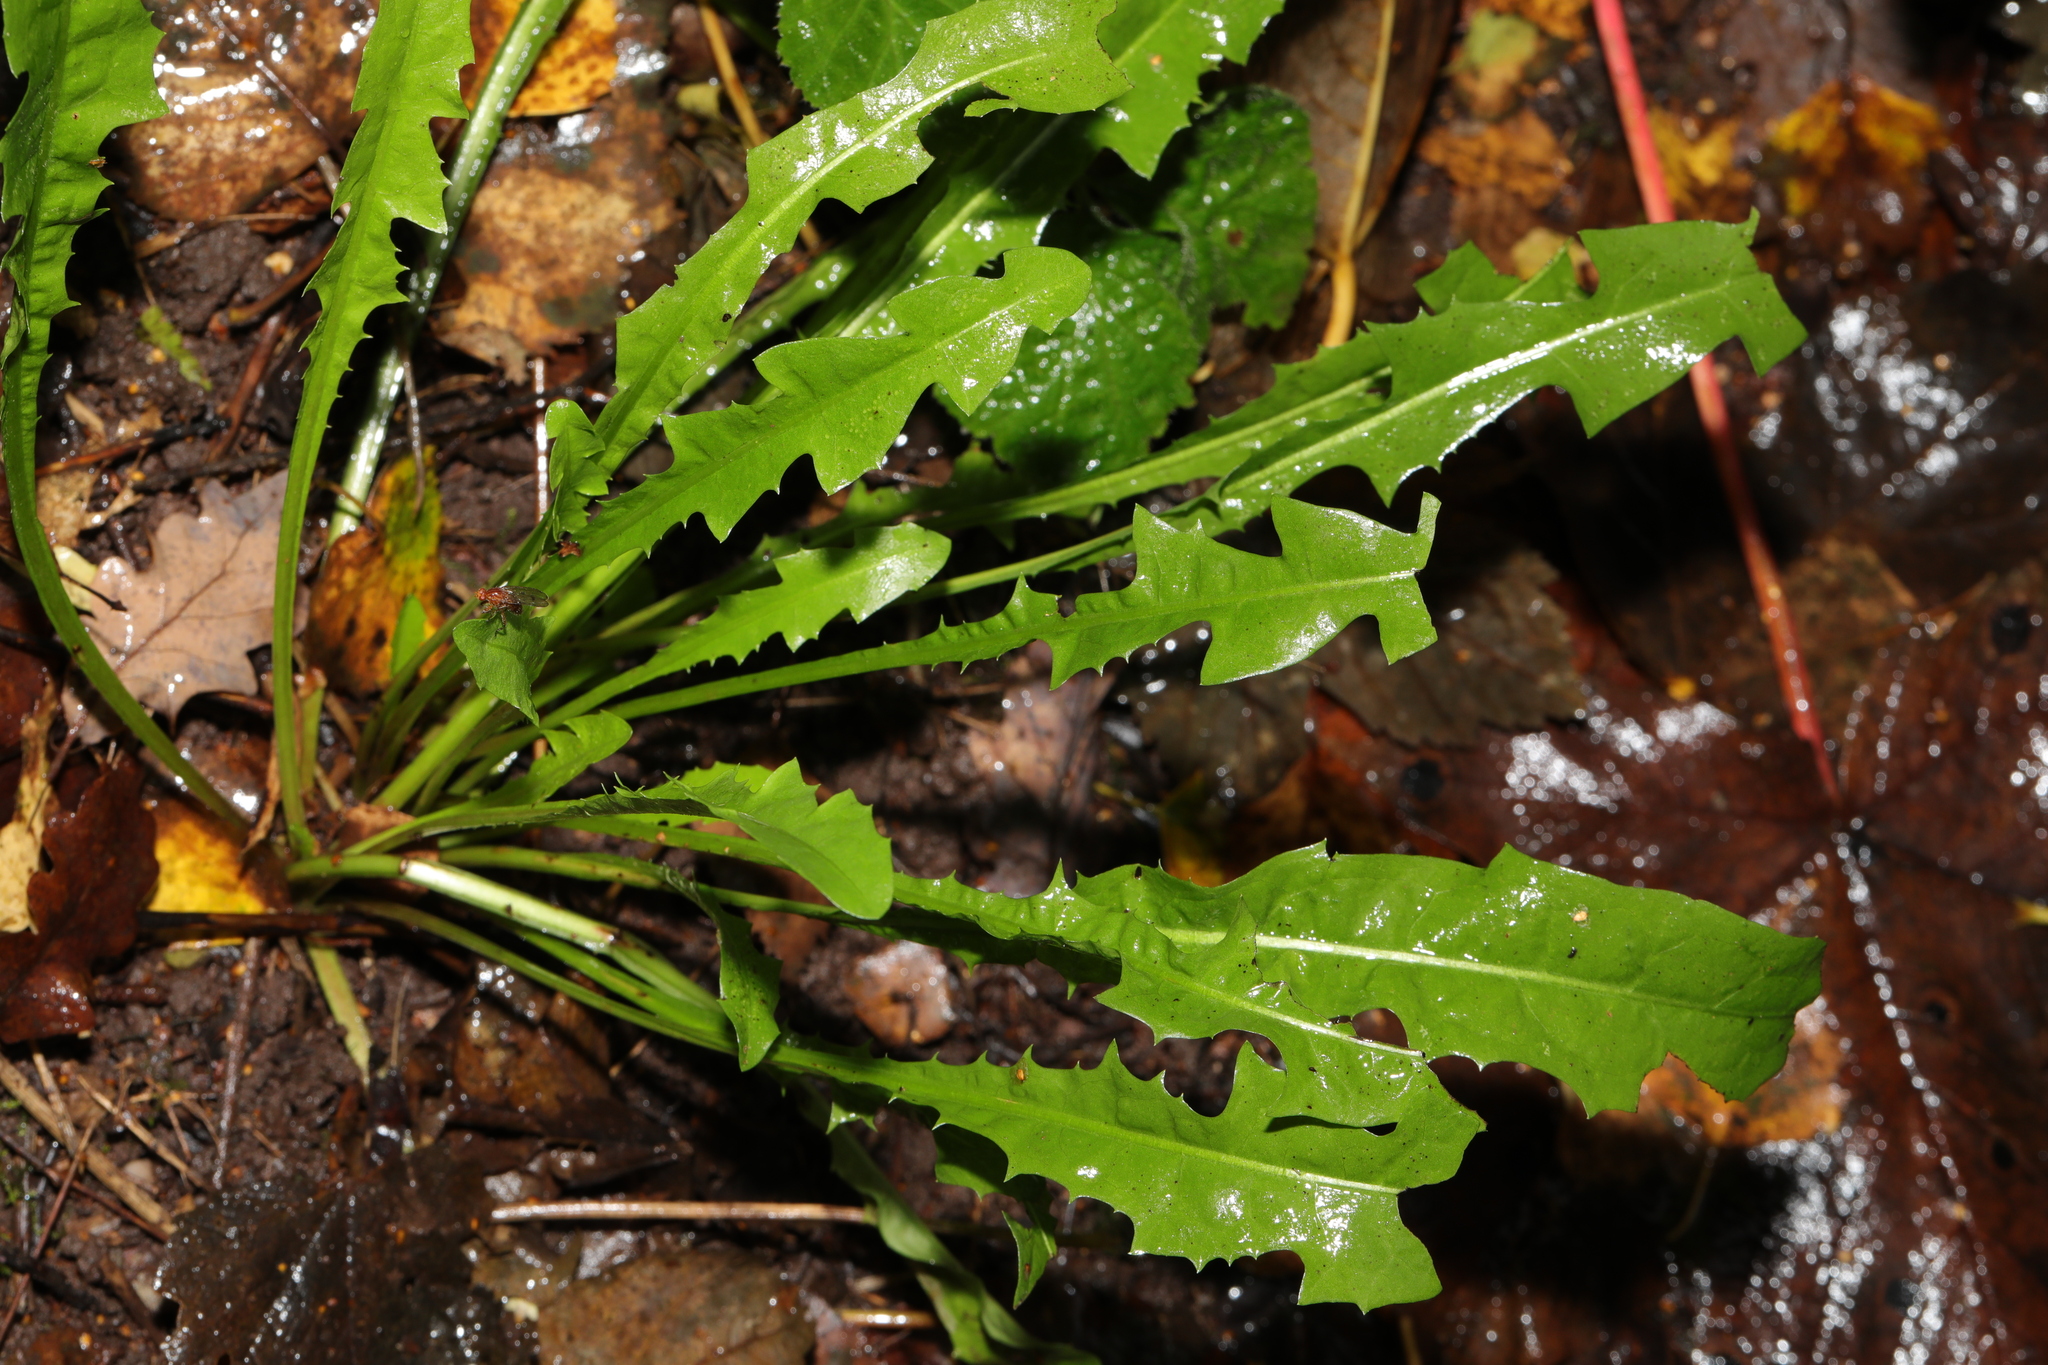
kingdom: Plantae
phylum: Tracheophyta
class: Magnoliopsida
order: Asterales
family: Asteraceae
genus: Taraxacum
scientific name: Taraxacum officinale
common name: Common dandelion
